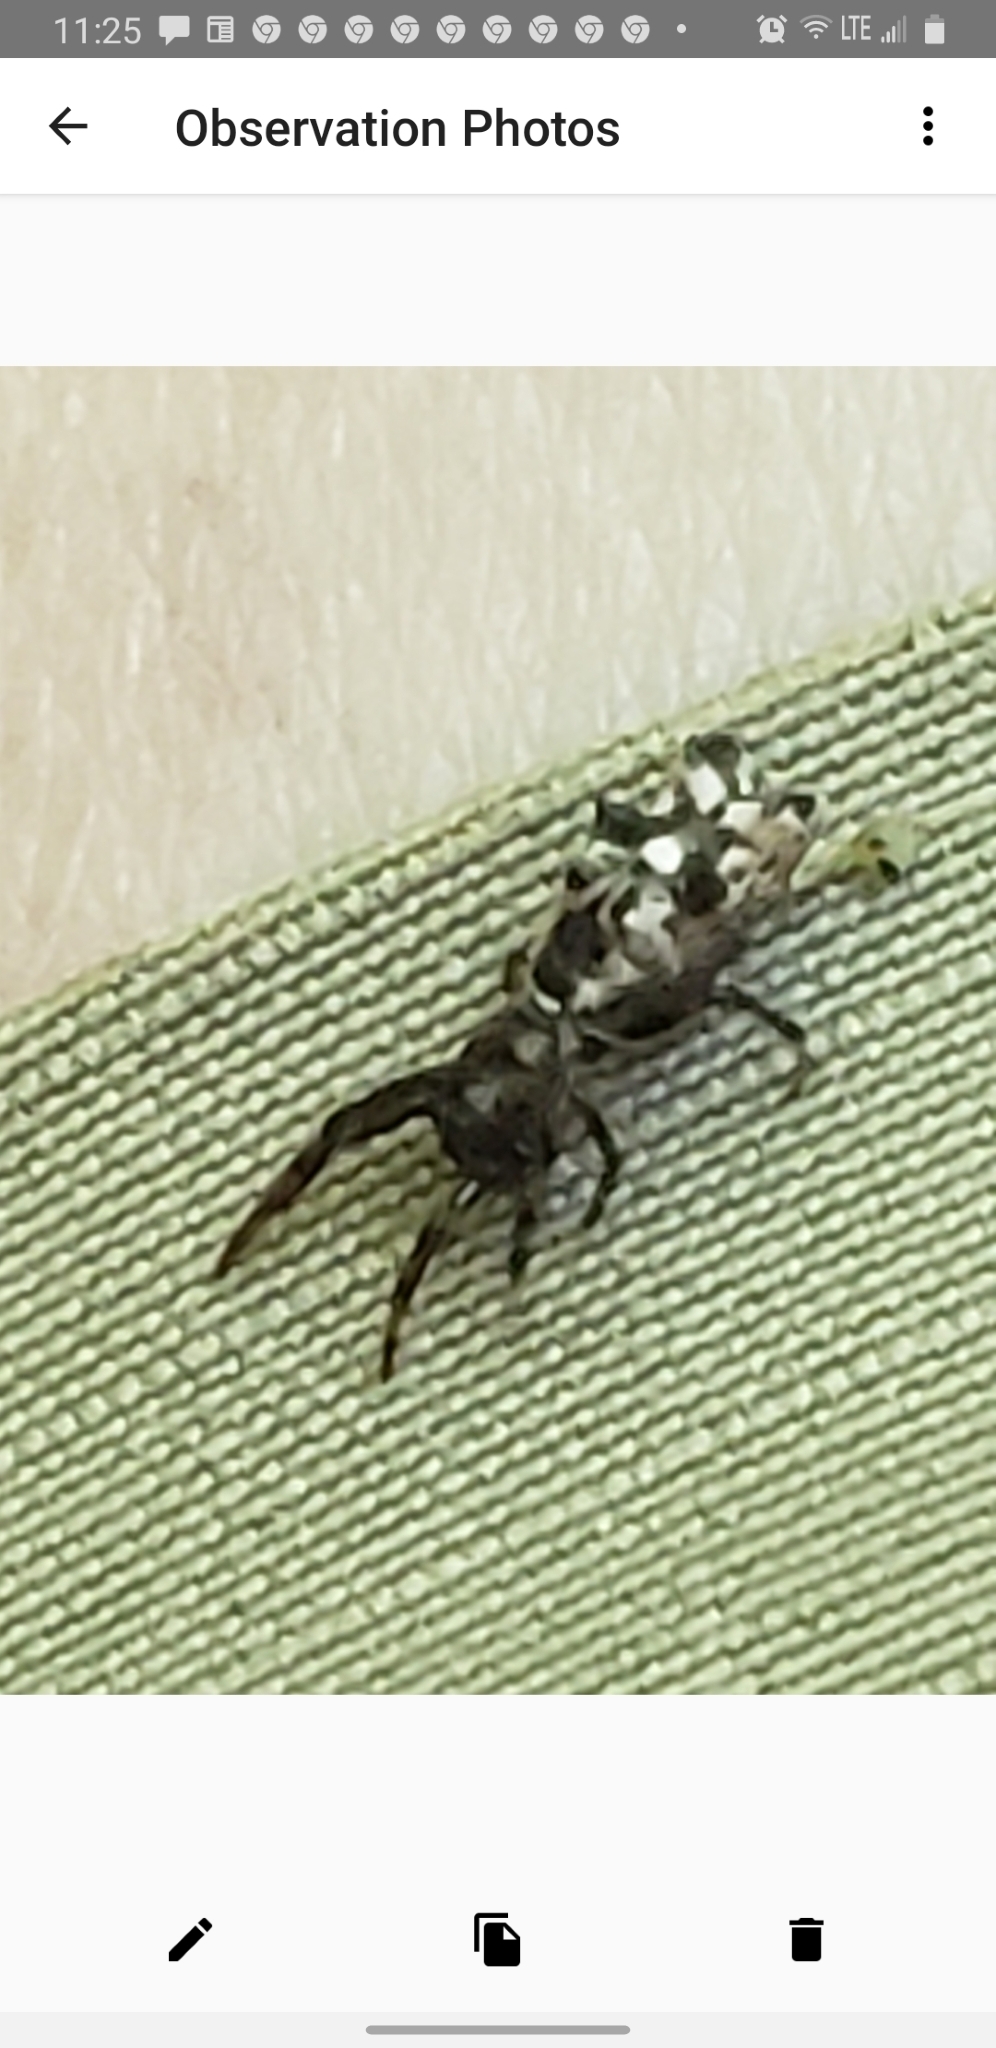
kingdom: Animalia
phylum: Arthropoda
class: Arachnida
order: Araneae
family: Araneidae
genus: Micrathena
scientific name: Micrathena gracilis
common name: Orb weavers
